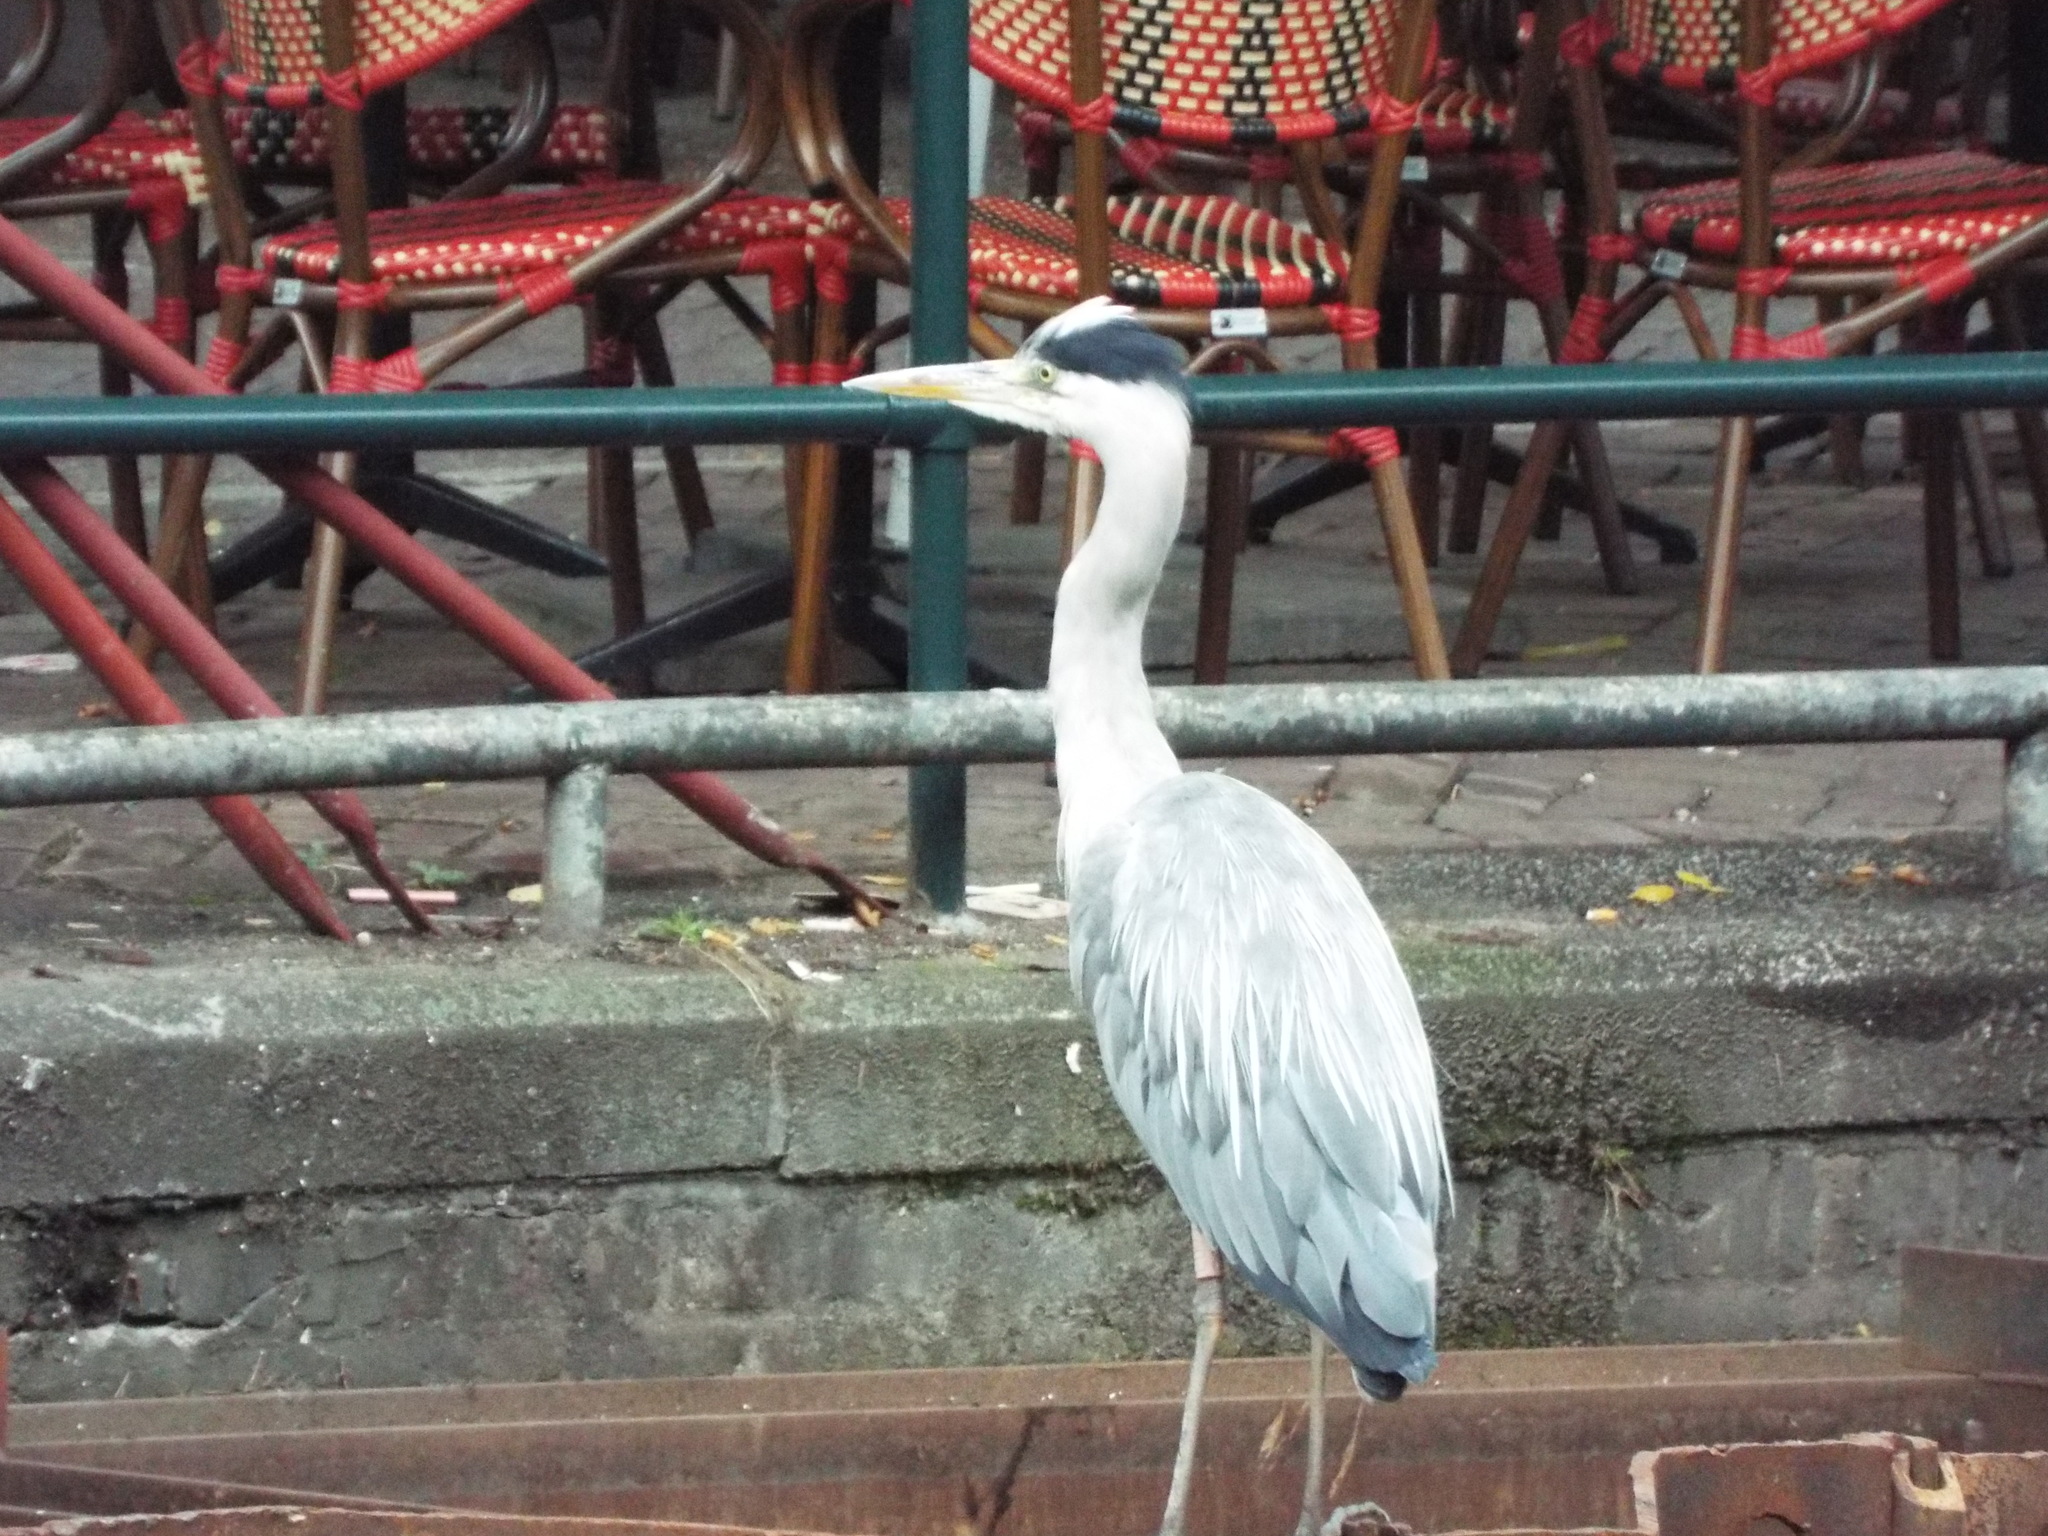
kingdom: Animalia
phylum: Chordata
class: Aves
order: Pelecaniformes
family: Ardeidae
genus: Ardea
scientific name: Ardea cinerea
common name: Grey heron
